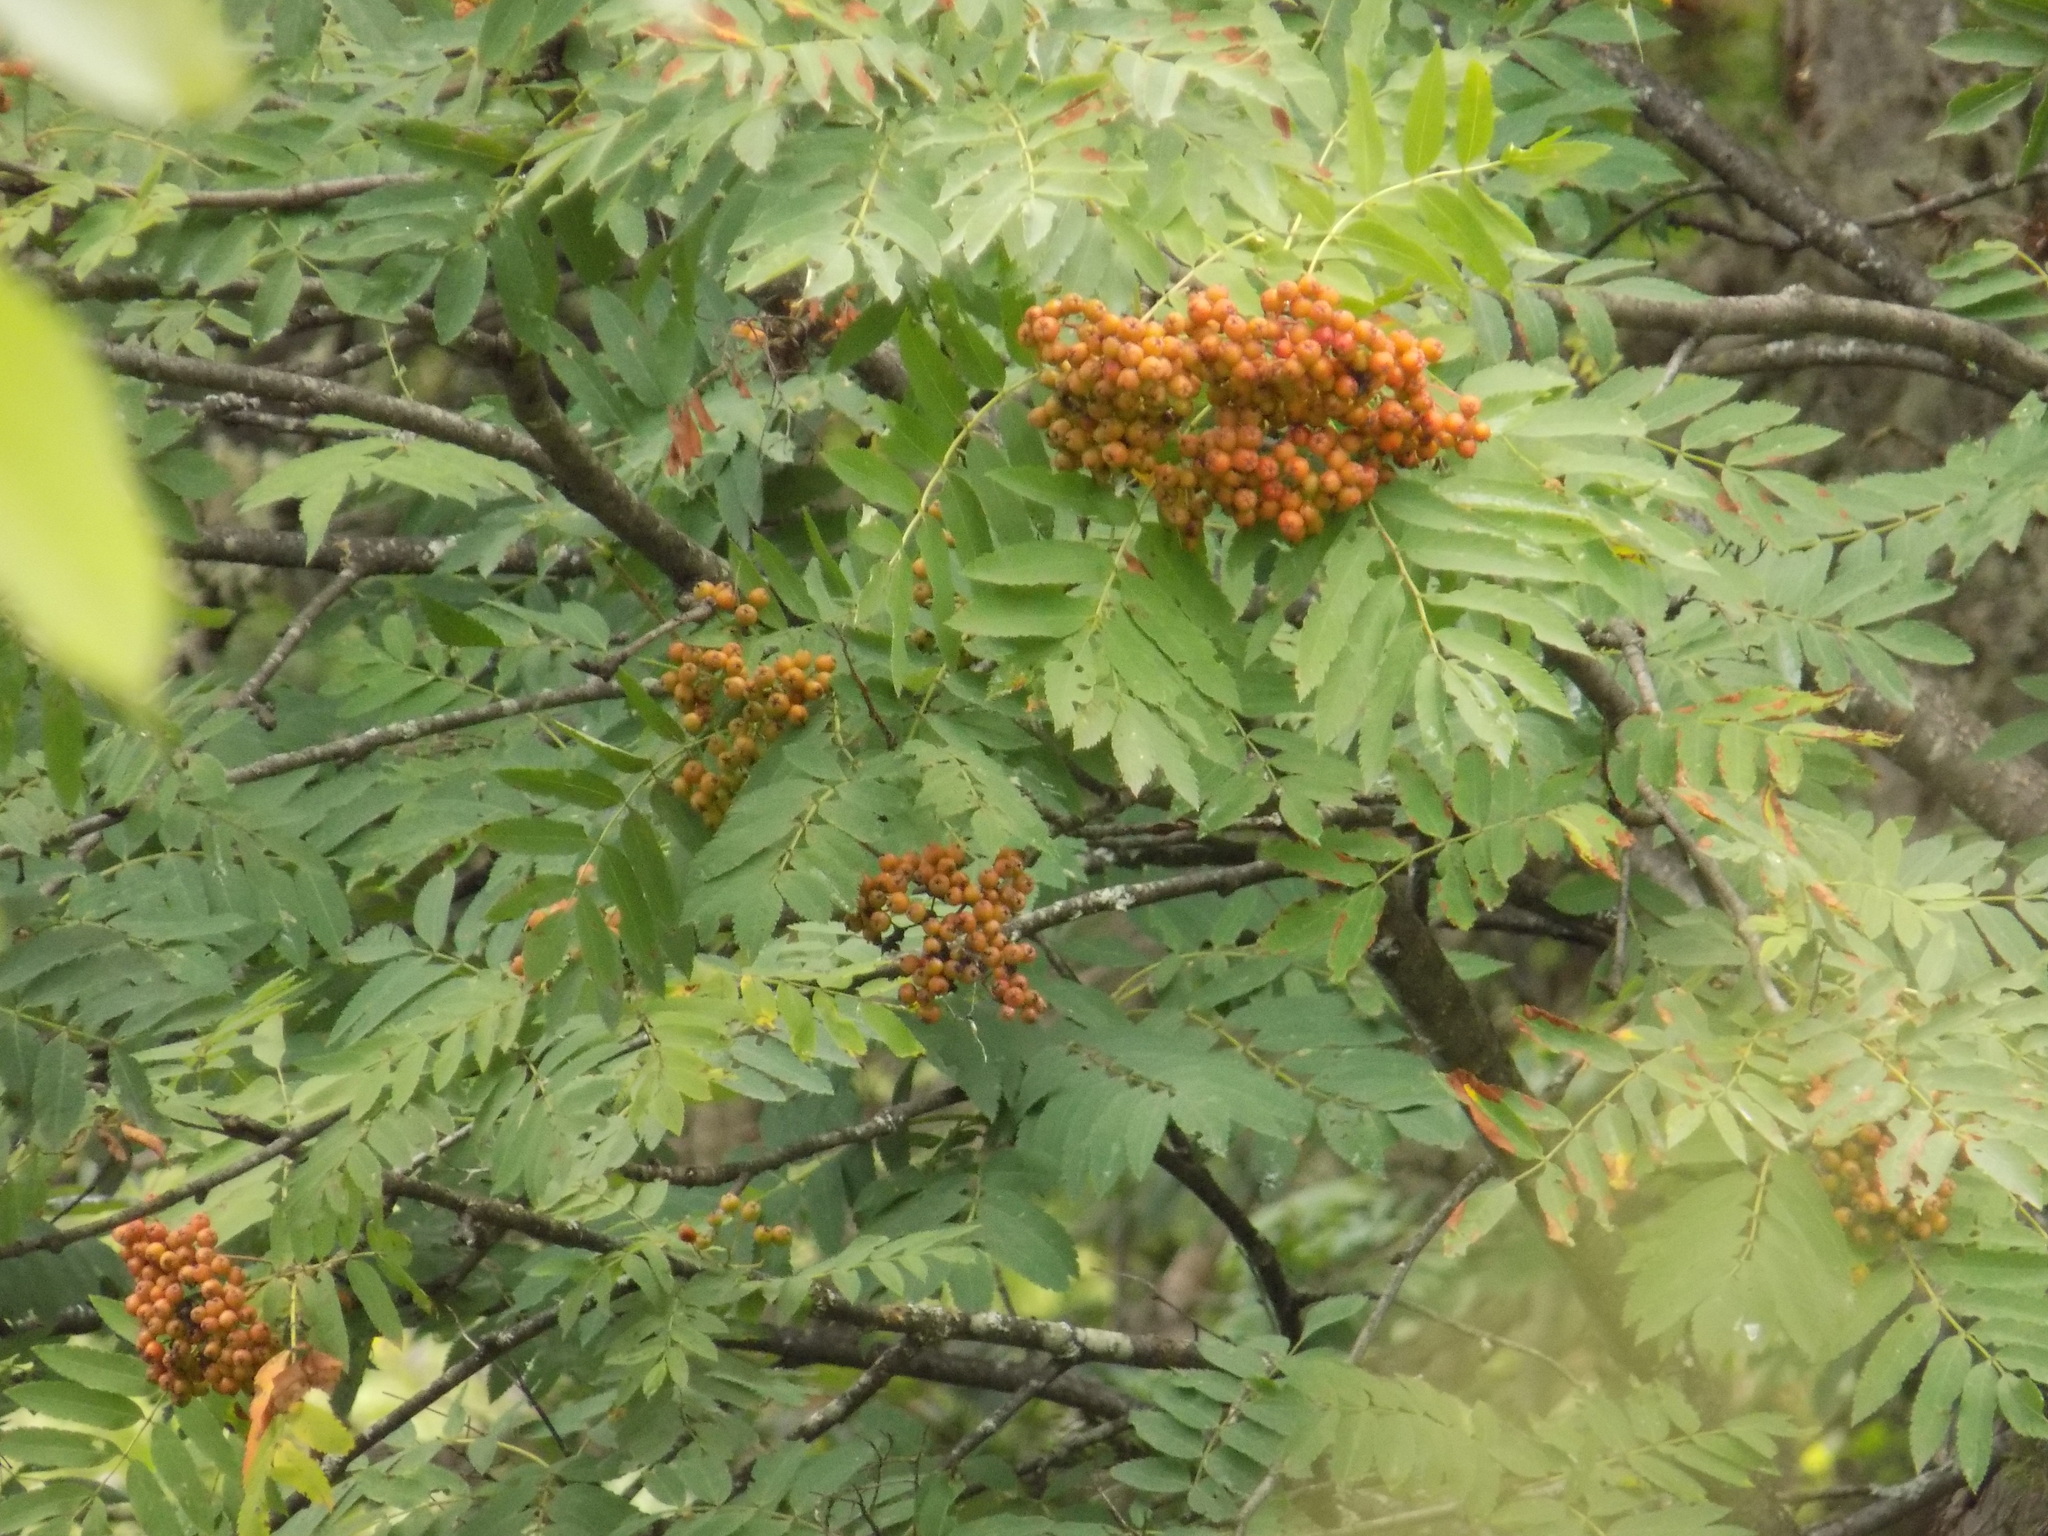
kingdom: Plantae
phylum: Tracheophyta
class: Magnoliopsida
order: Rosales
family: Rosaceae
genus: Sorbus
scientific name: Sorbus aucuparia
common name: Rowan
